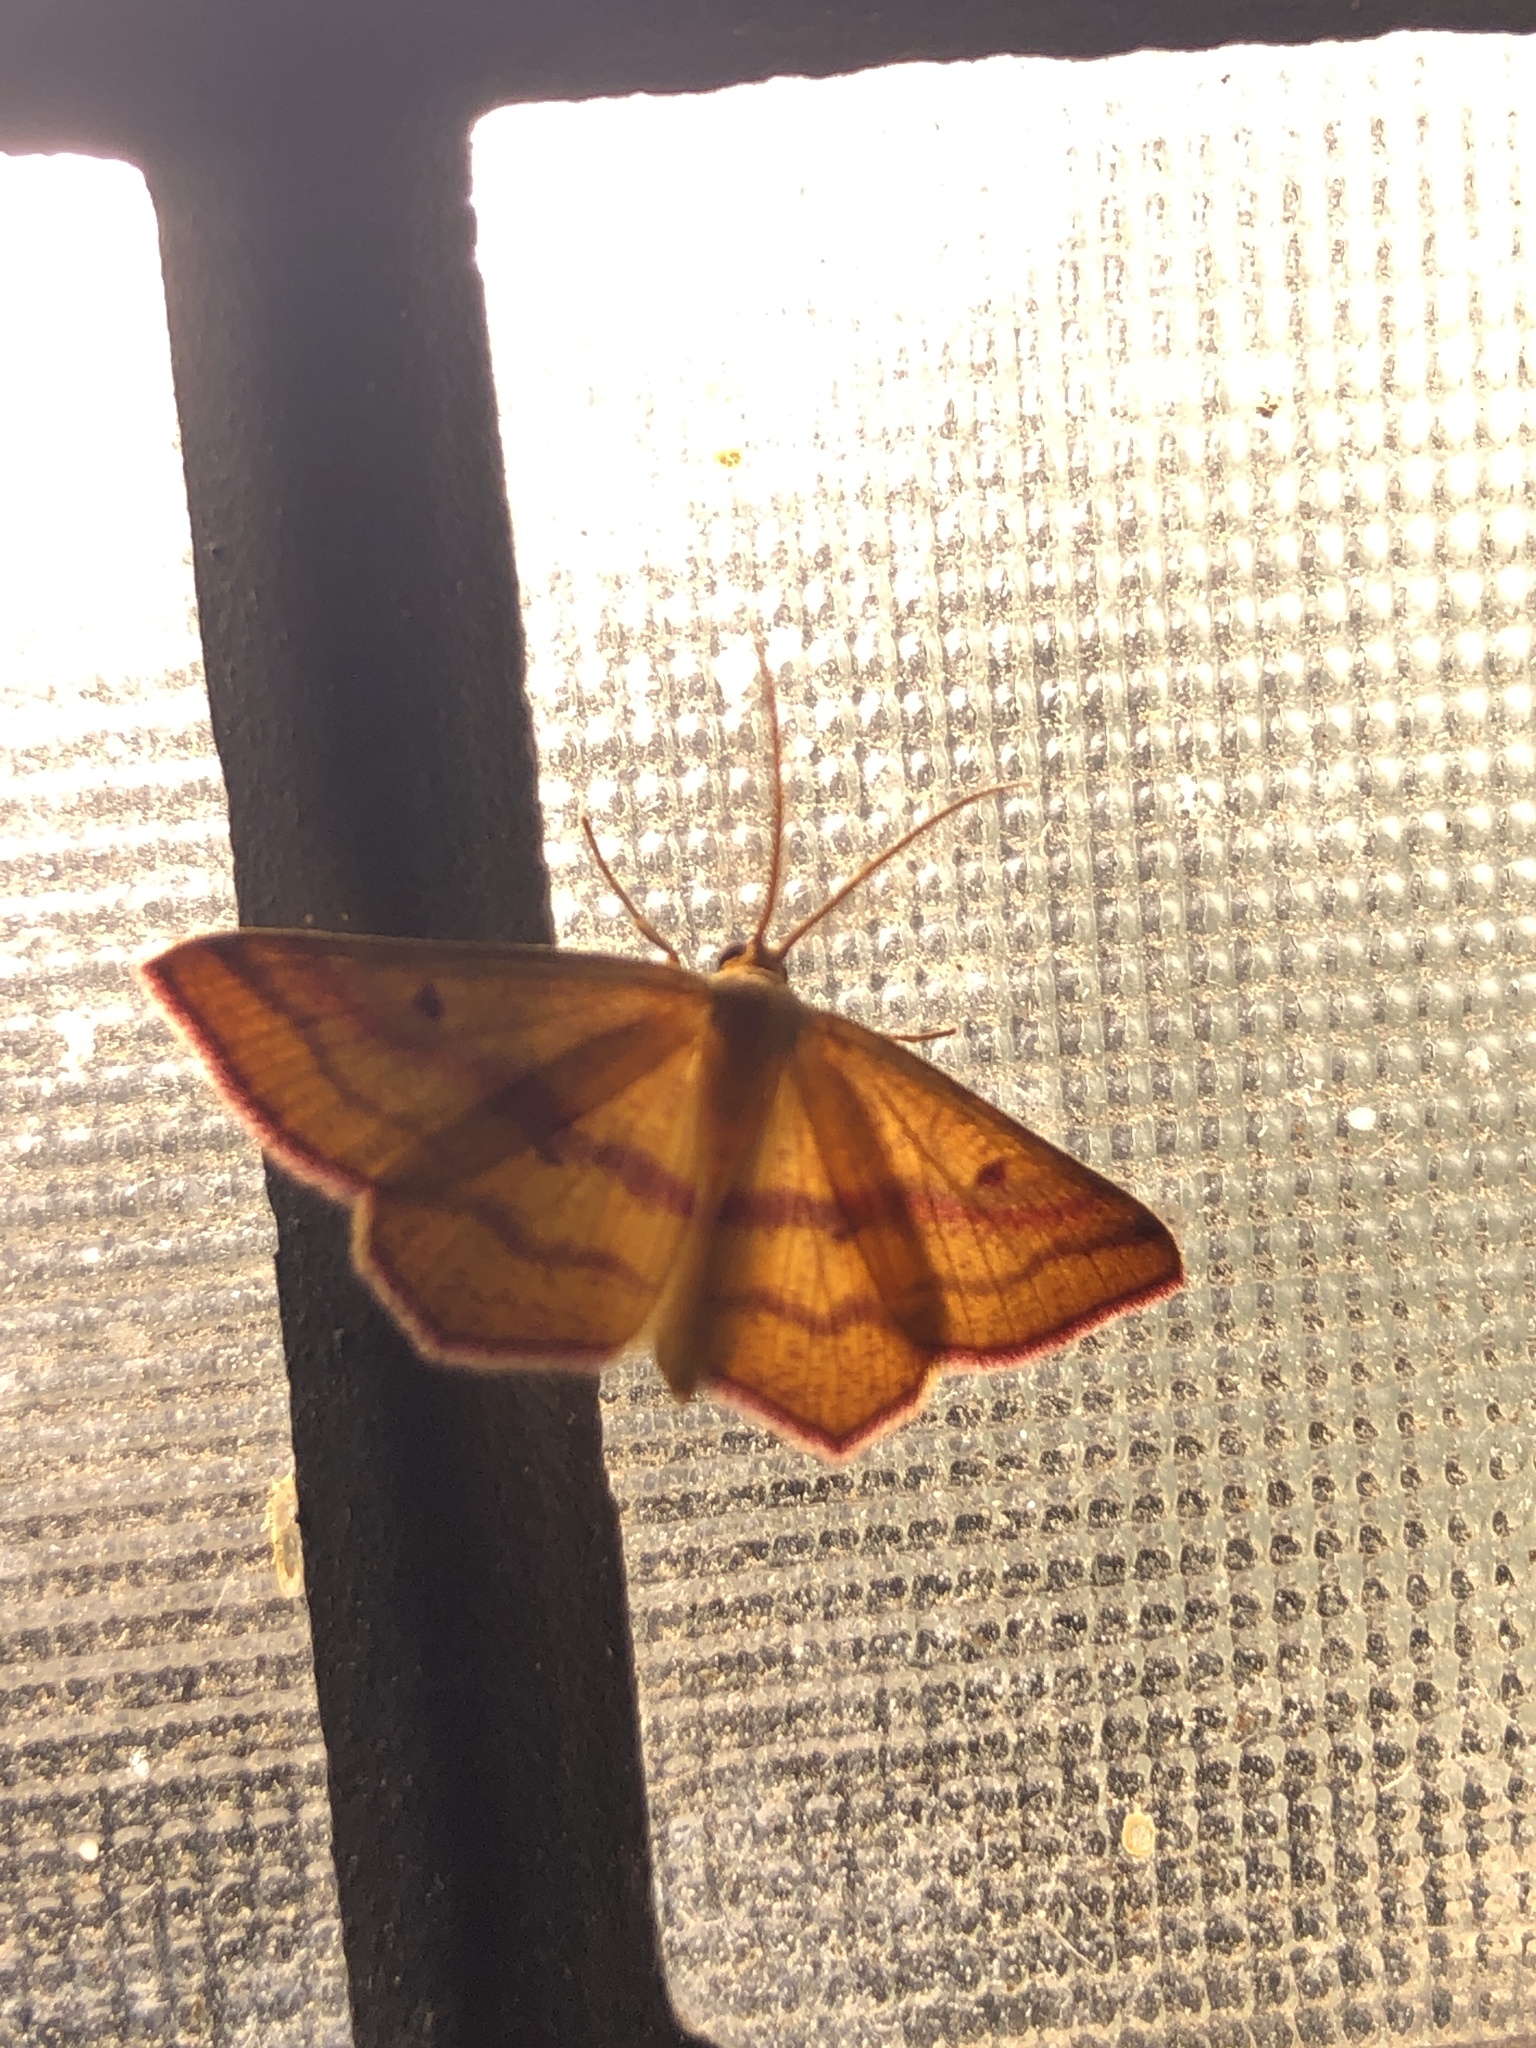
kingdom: Animalia
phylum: Arthropoda
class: Insecta
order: Lepidoptera
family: Geometridae
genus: Haematopis
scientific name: Haematopis grataria
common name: Chickweed geometer
